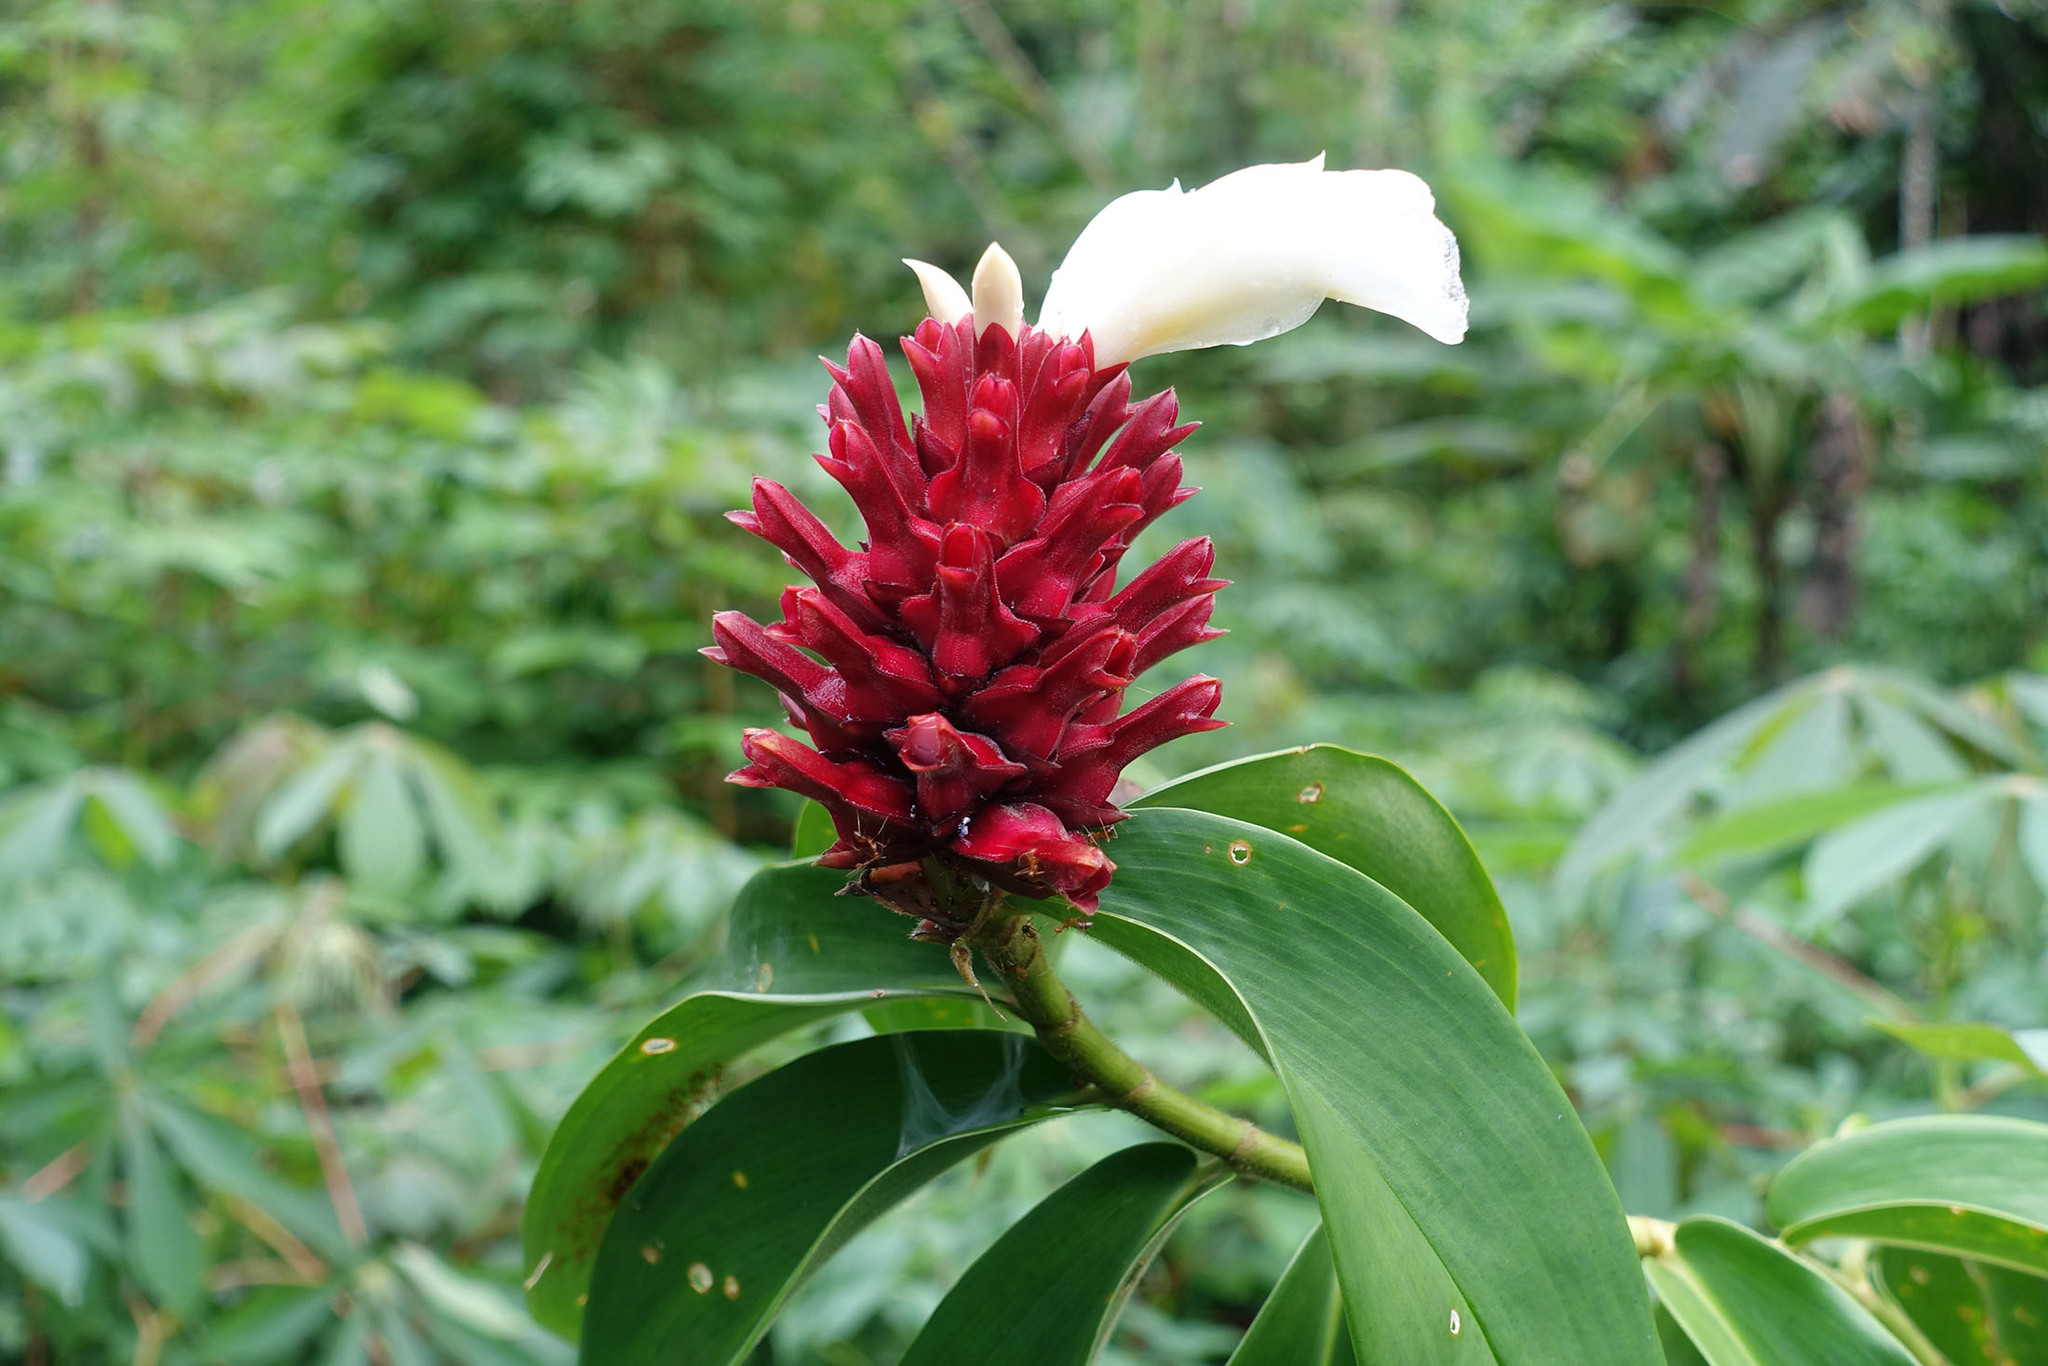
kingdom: Plantae
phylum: Tracheophyta
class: Liliopsida
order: Zingiberales
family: Costaceae
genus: Hellenia
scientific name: Hellenia speciosa
